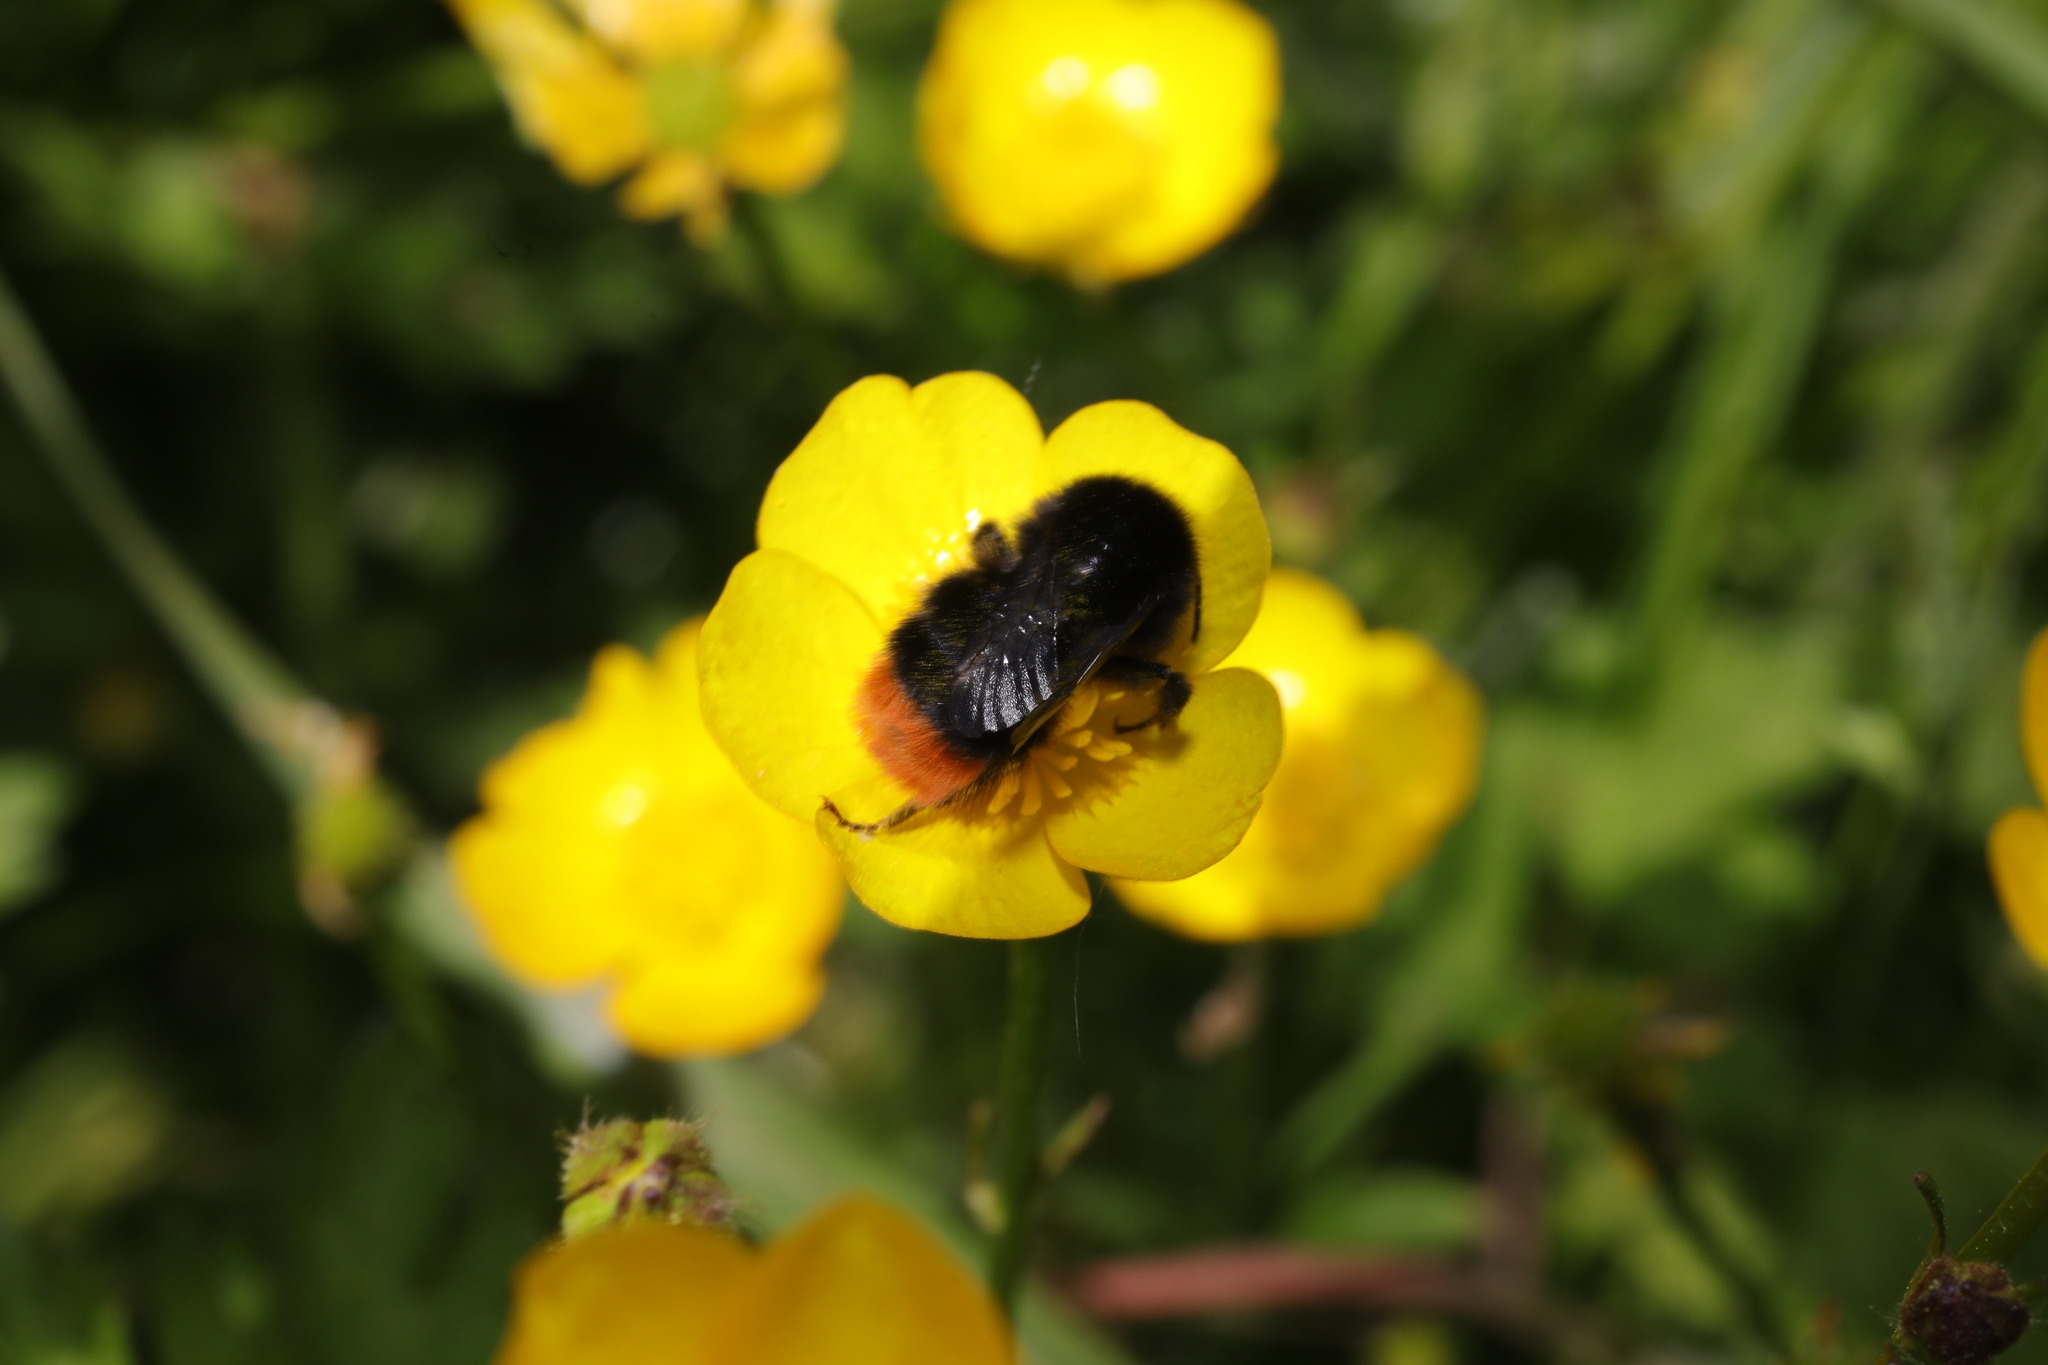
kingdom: Animalia
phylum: Arthropoda
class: Insecta
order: Hymenoptera
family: Apidae
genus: Bombus
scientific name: Bombus lapidarius
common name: Large red-tailed humble-bee
